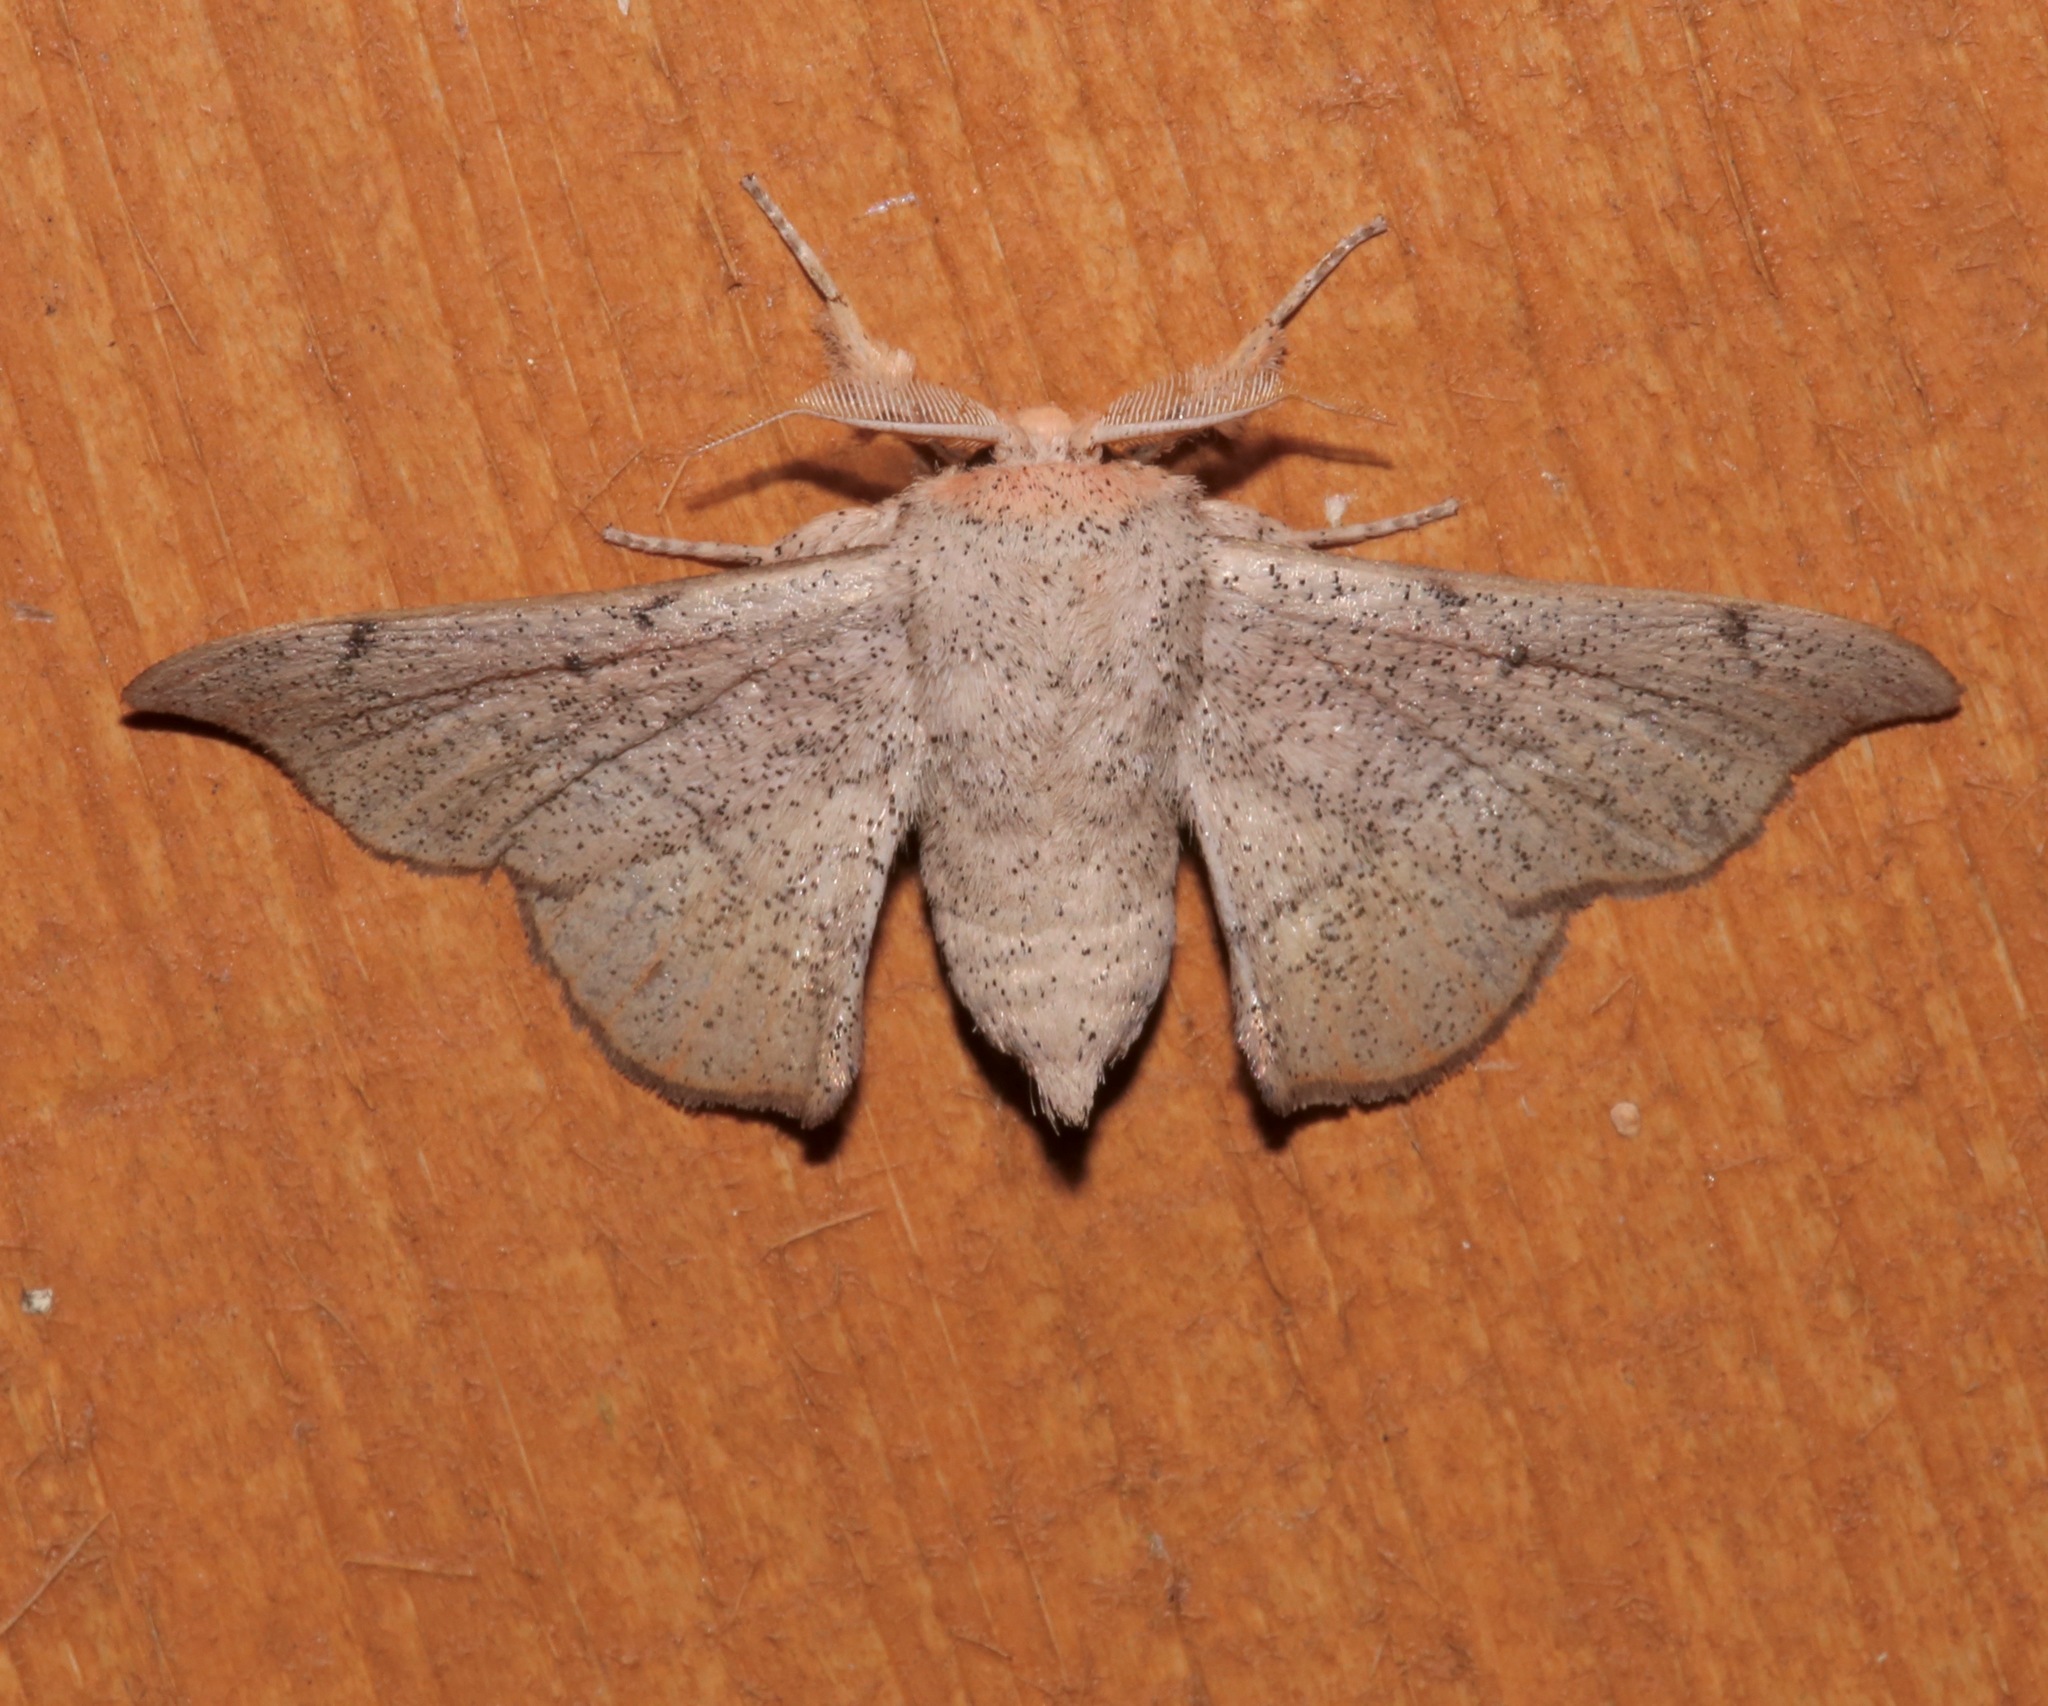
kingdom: Animalia
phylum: Arthropoda
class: Insecta
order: Lepidoptera
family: Mimallonidae
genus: Cicinnus
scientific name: Cicinnus melsheimeri
